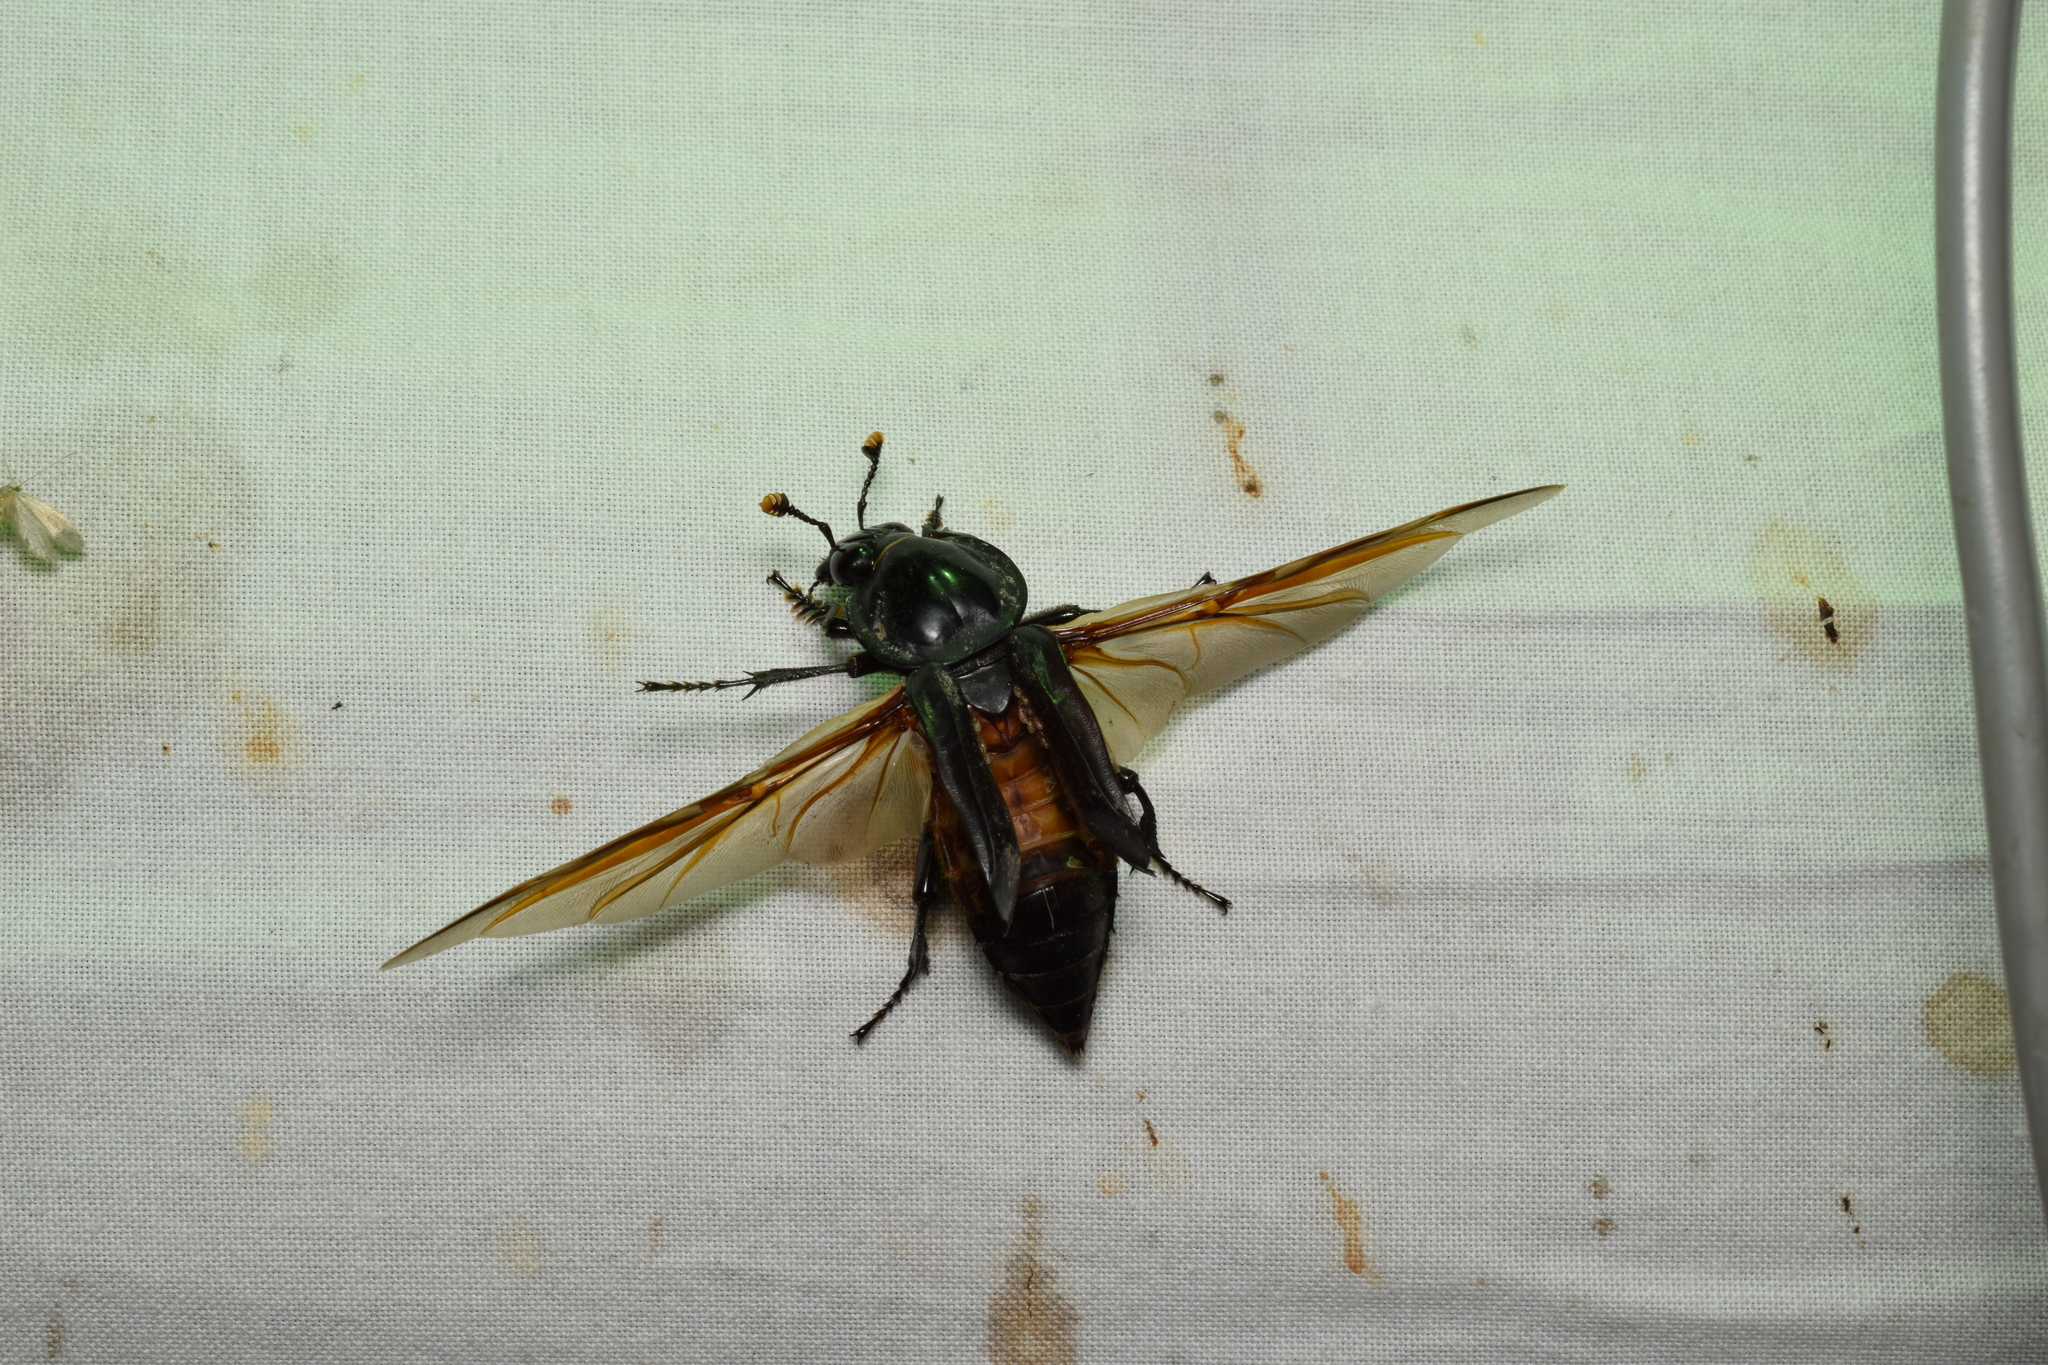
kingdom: Animalia
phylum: Arthropoda
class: Insecta
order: Coleoptera
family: Staphylinidae
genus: Nicrophorus
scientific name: Nicrophorus concolor
